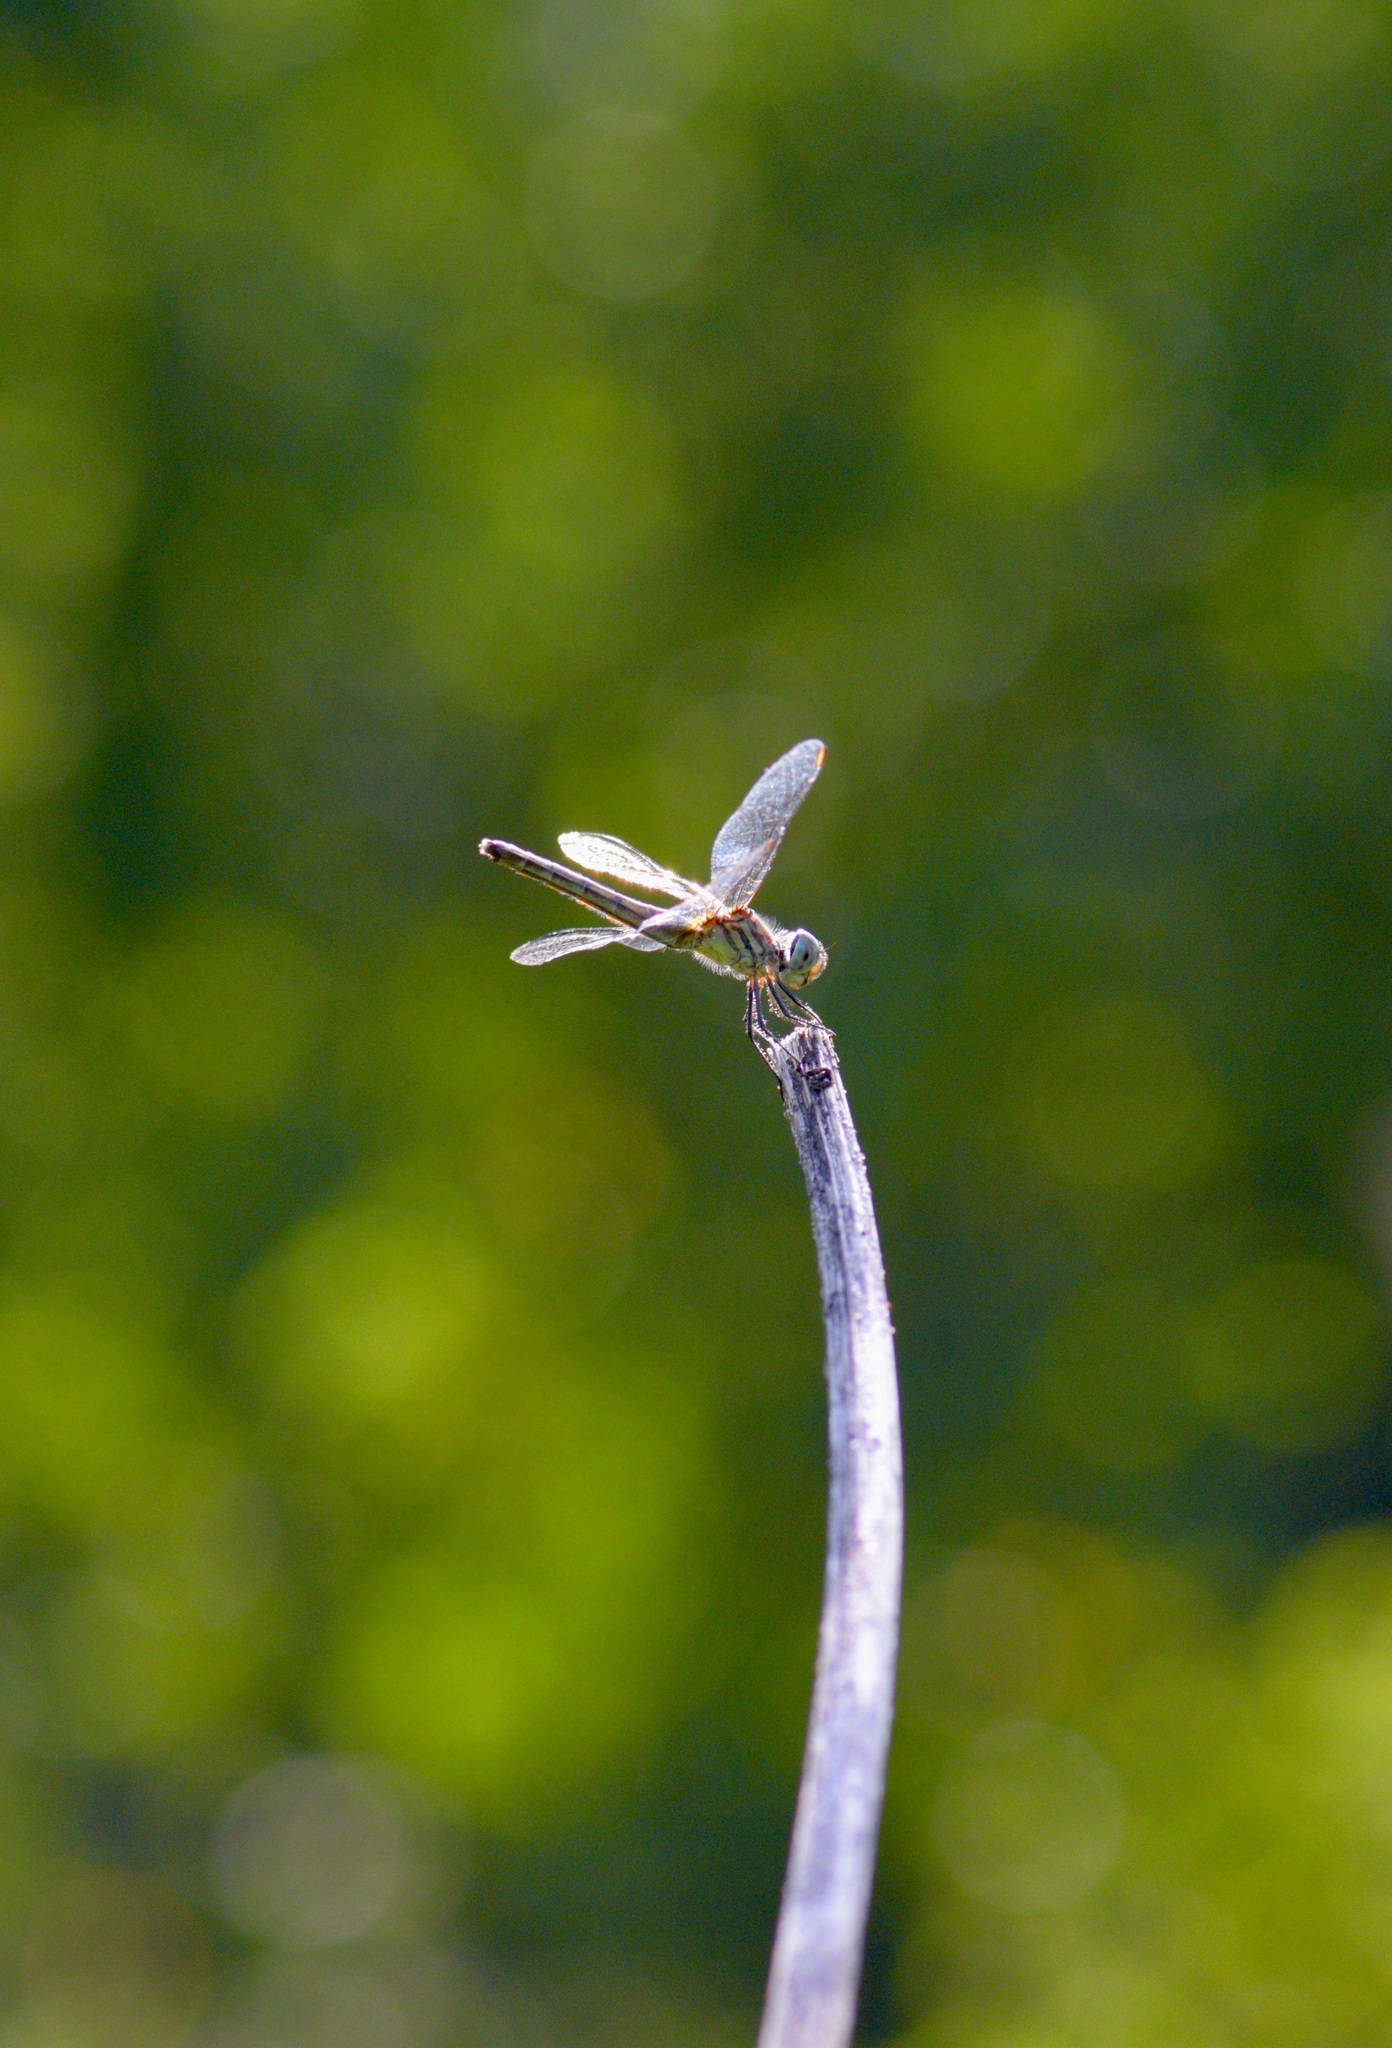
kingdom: Animalia
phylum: Arthropoda
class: Insecta
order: Odonata
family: Libellulidae
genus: Pachydiplax
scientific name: Pachydiplax longipennis
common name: Blue dasher
